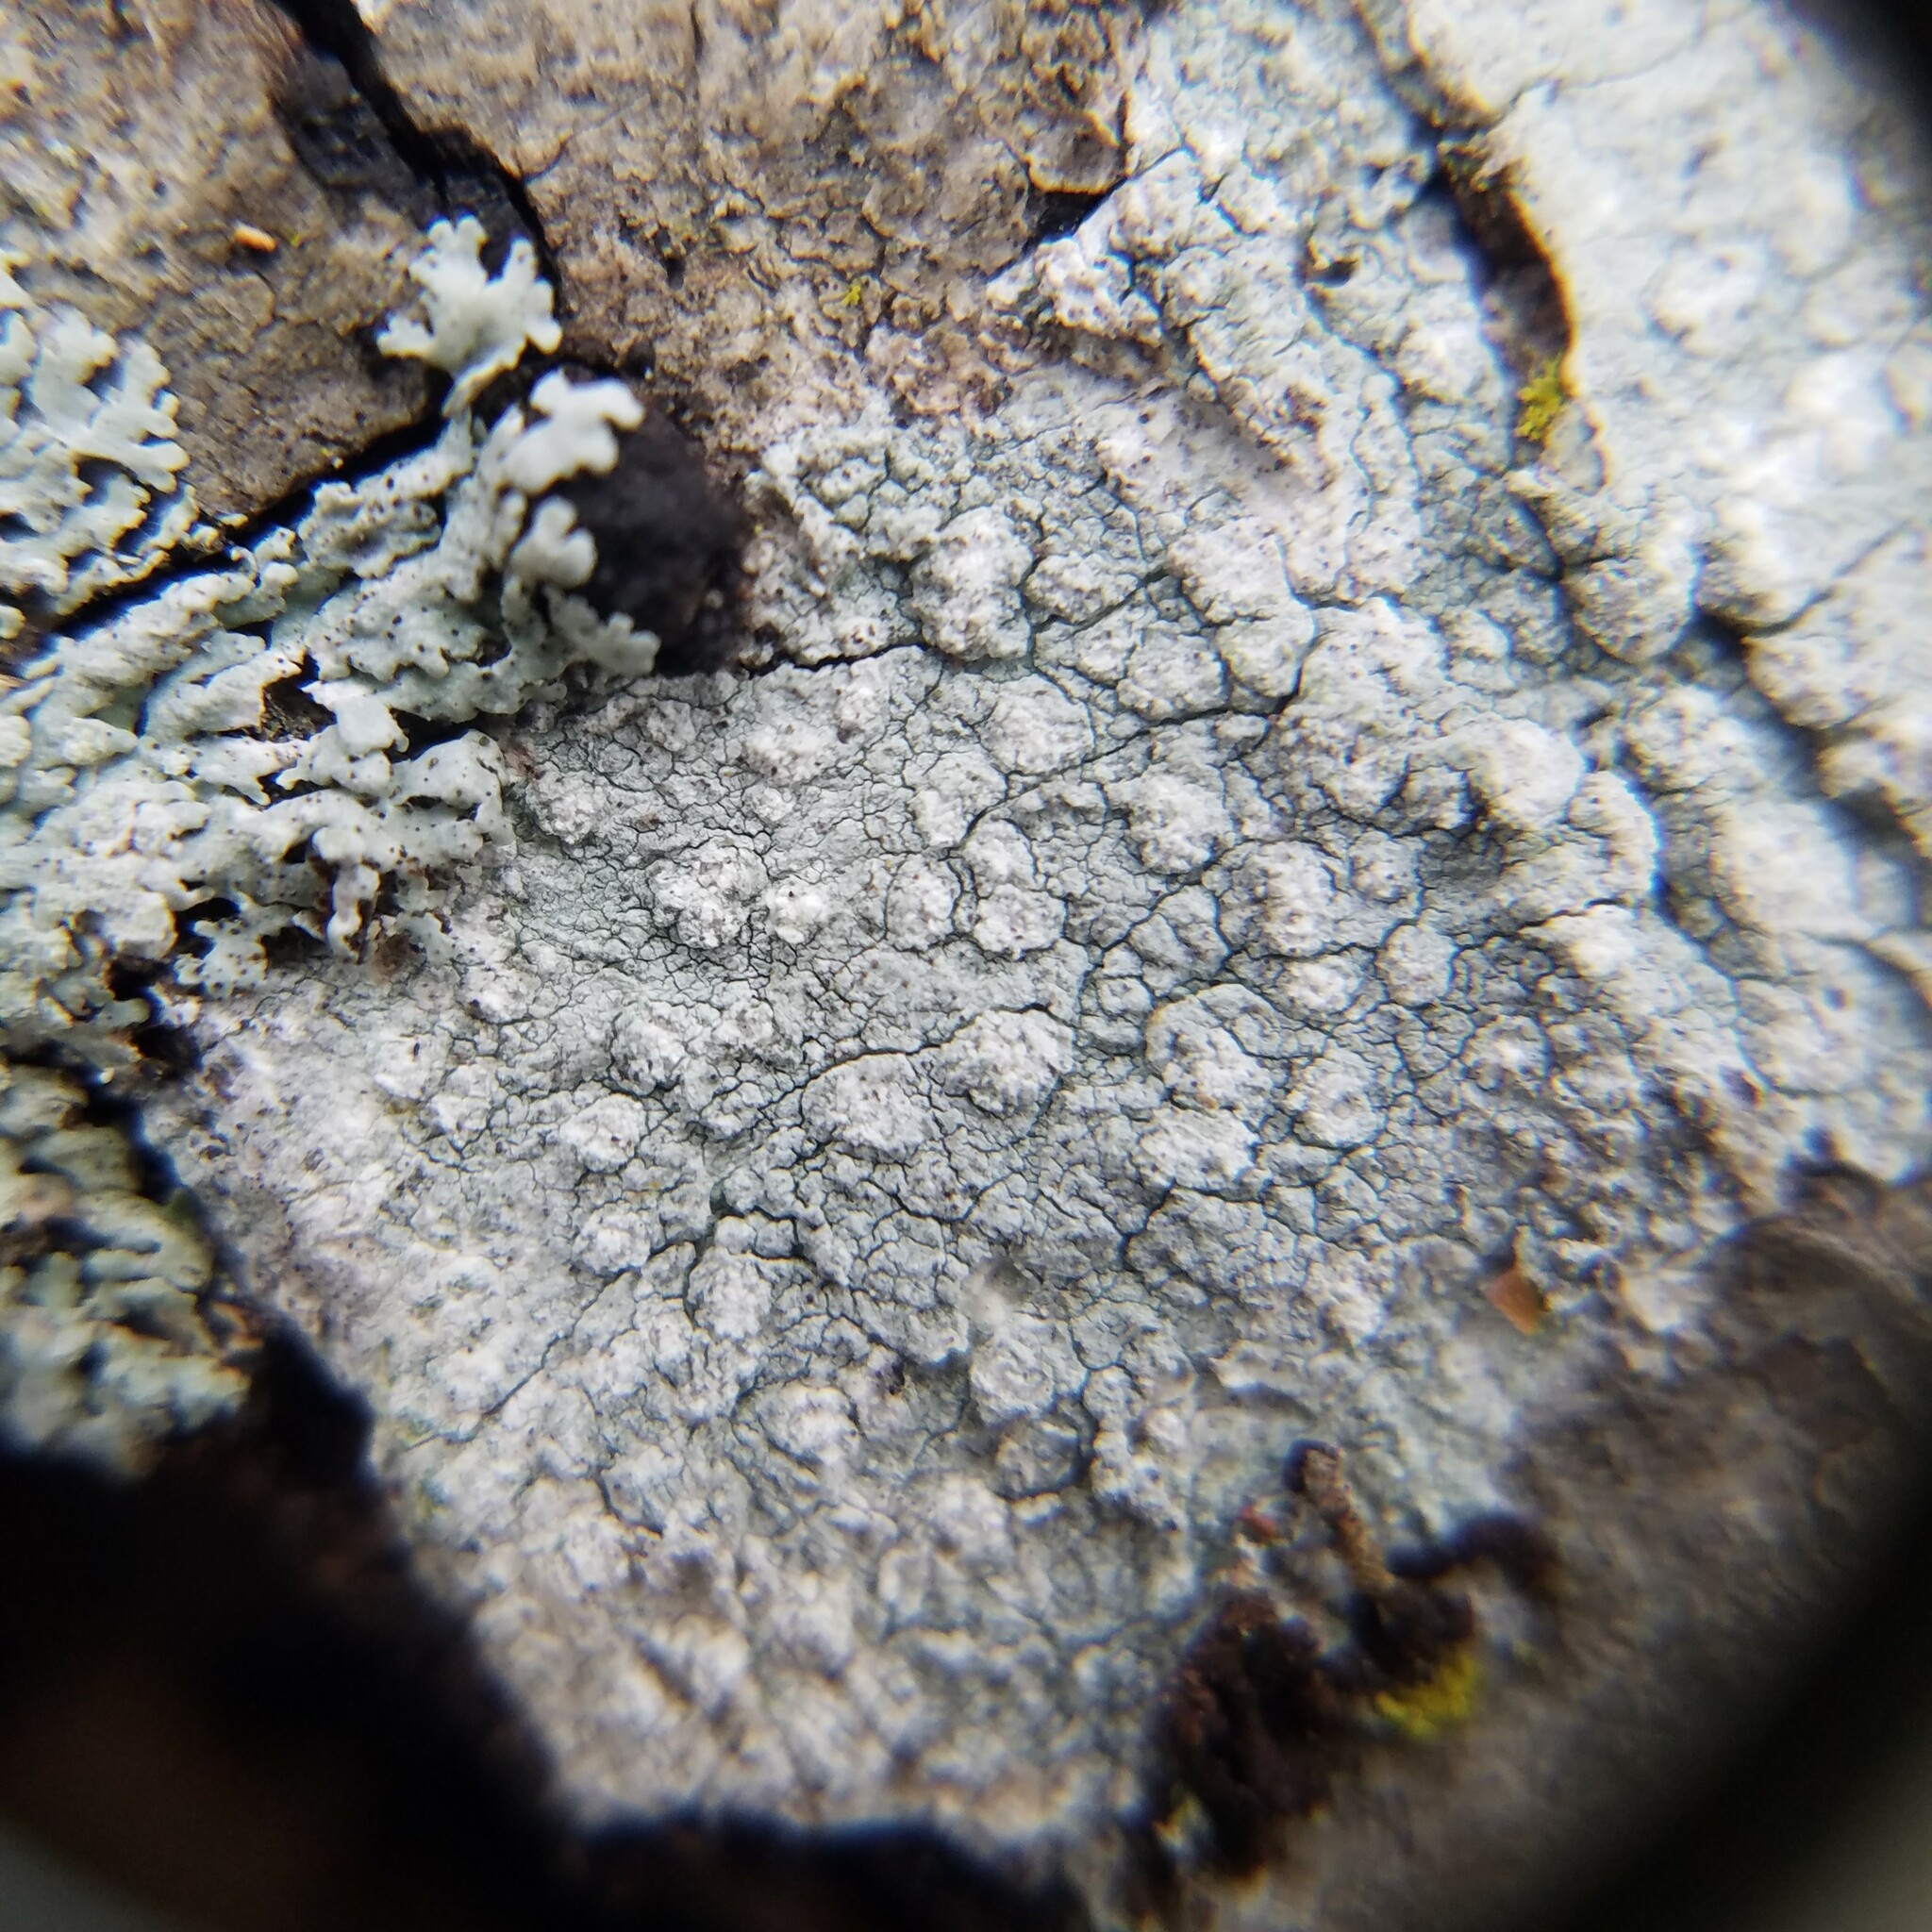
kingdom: Fungi
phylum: Ascomycota
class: Lecanoromycetes
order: Ostropales
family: Phlyctidaceae
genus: Phlyctis
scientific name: Phlyctis boliviensis
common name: Bark whitewash
